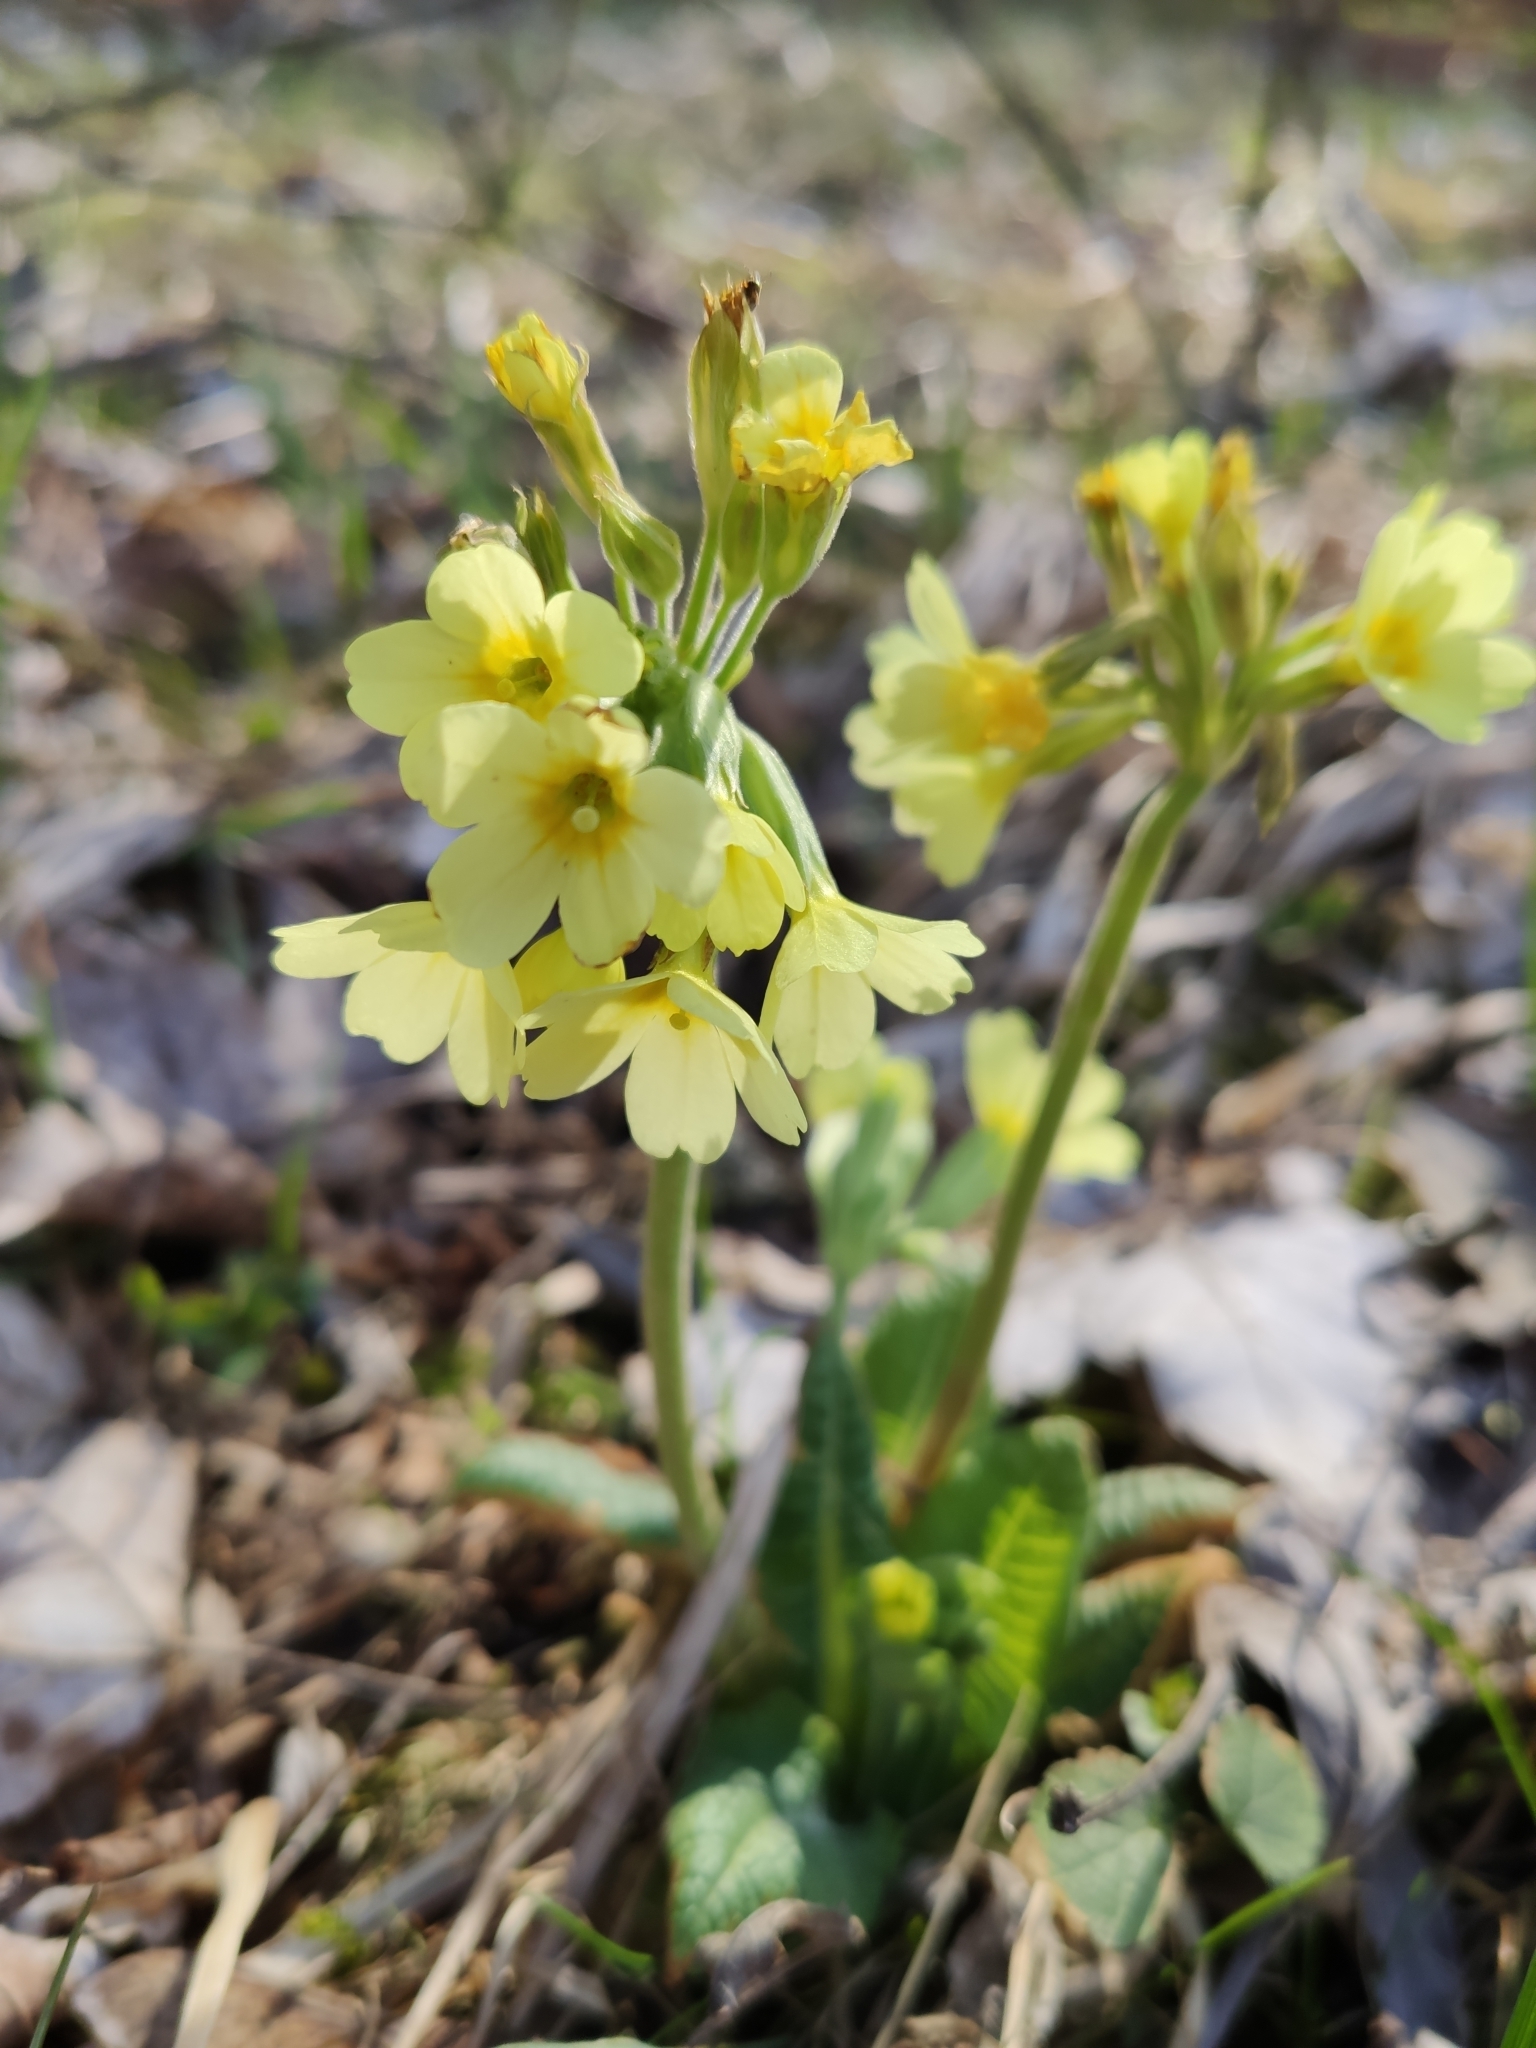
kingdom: Plantae
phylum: Tracheophyta
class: Magnoliopsida
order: Ericales
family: Primulaceae
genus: Primula
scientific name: Primula elatior
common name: Oxlip
